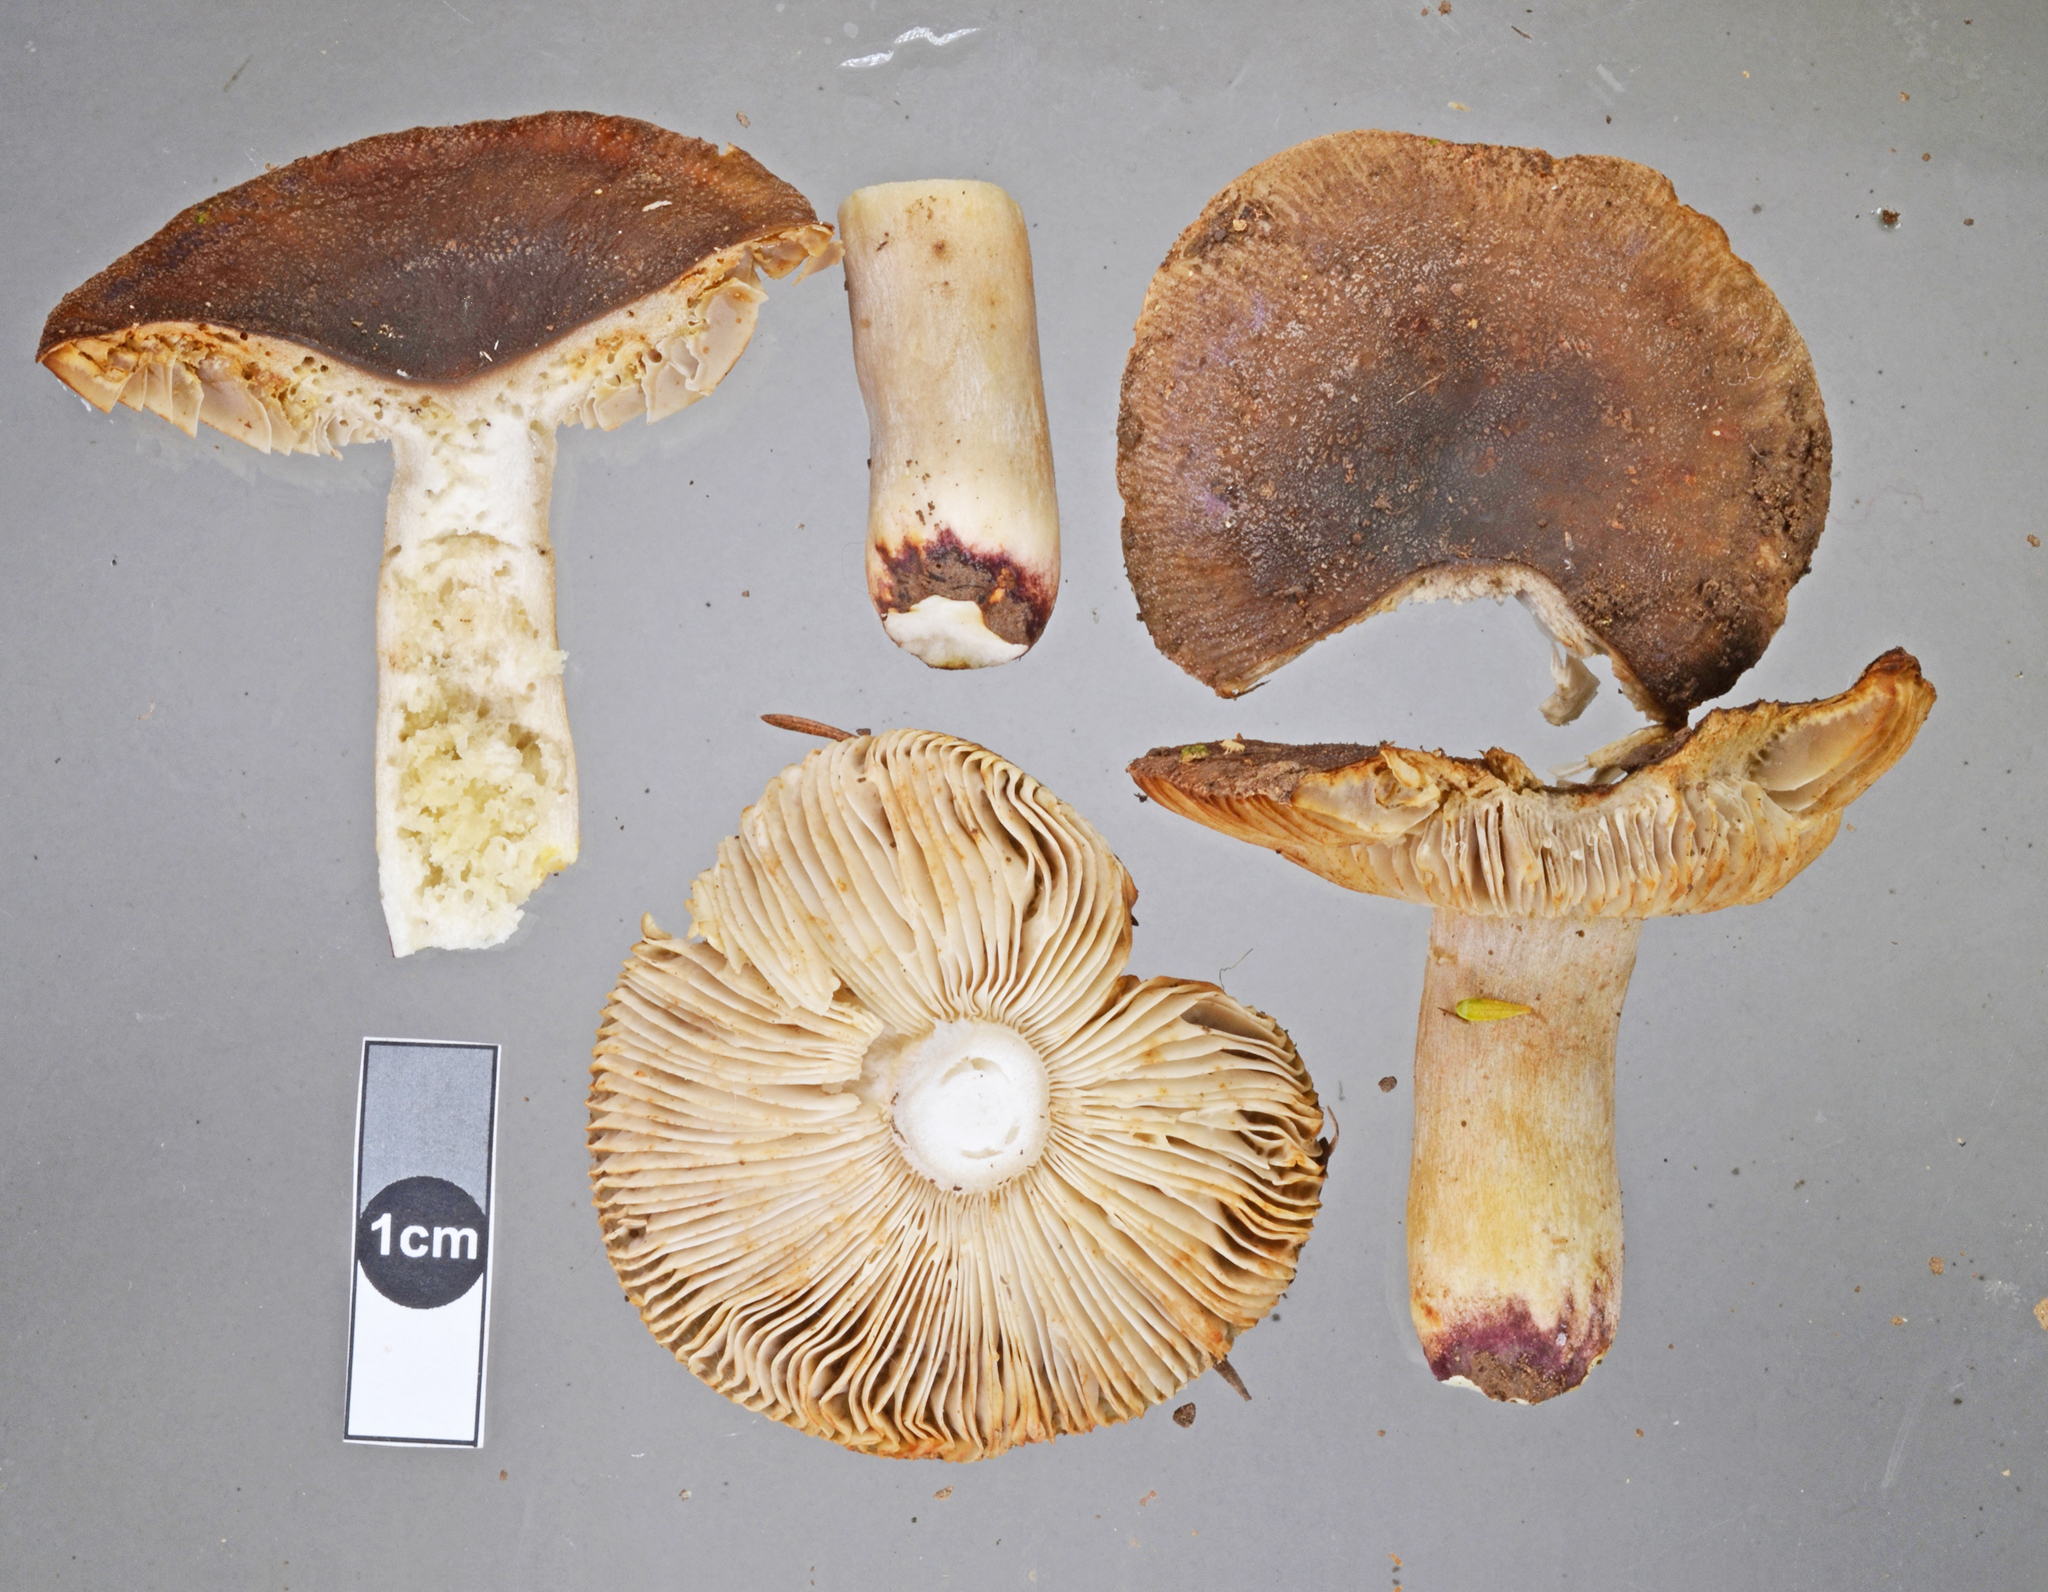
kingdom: Fungi
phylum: Basidiomycota
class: Agaricomycetes
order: Russulales
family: Russulaceae
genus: Russula
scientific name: Russula vinaceocuticulata
